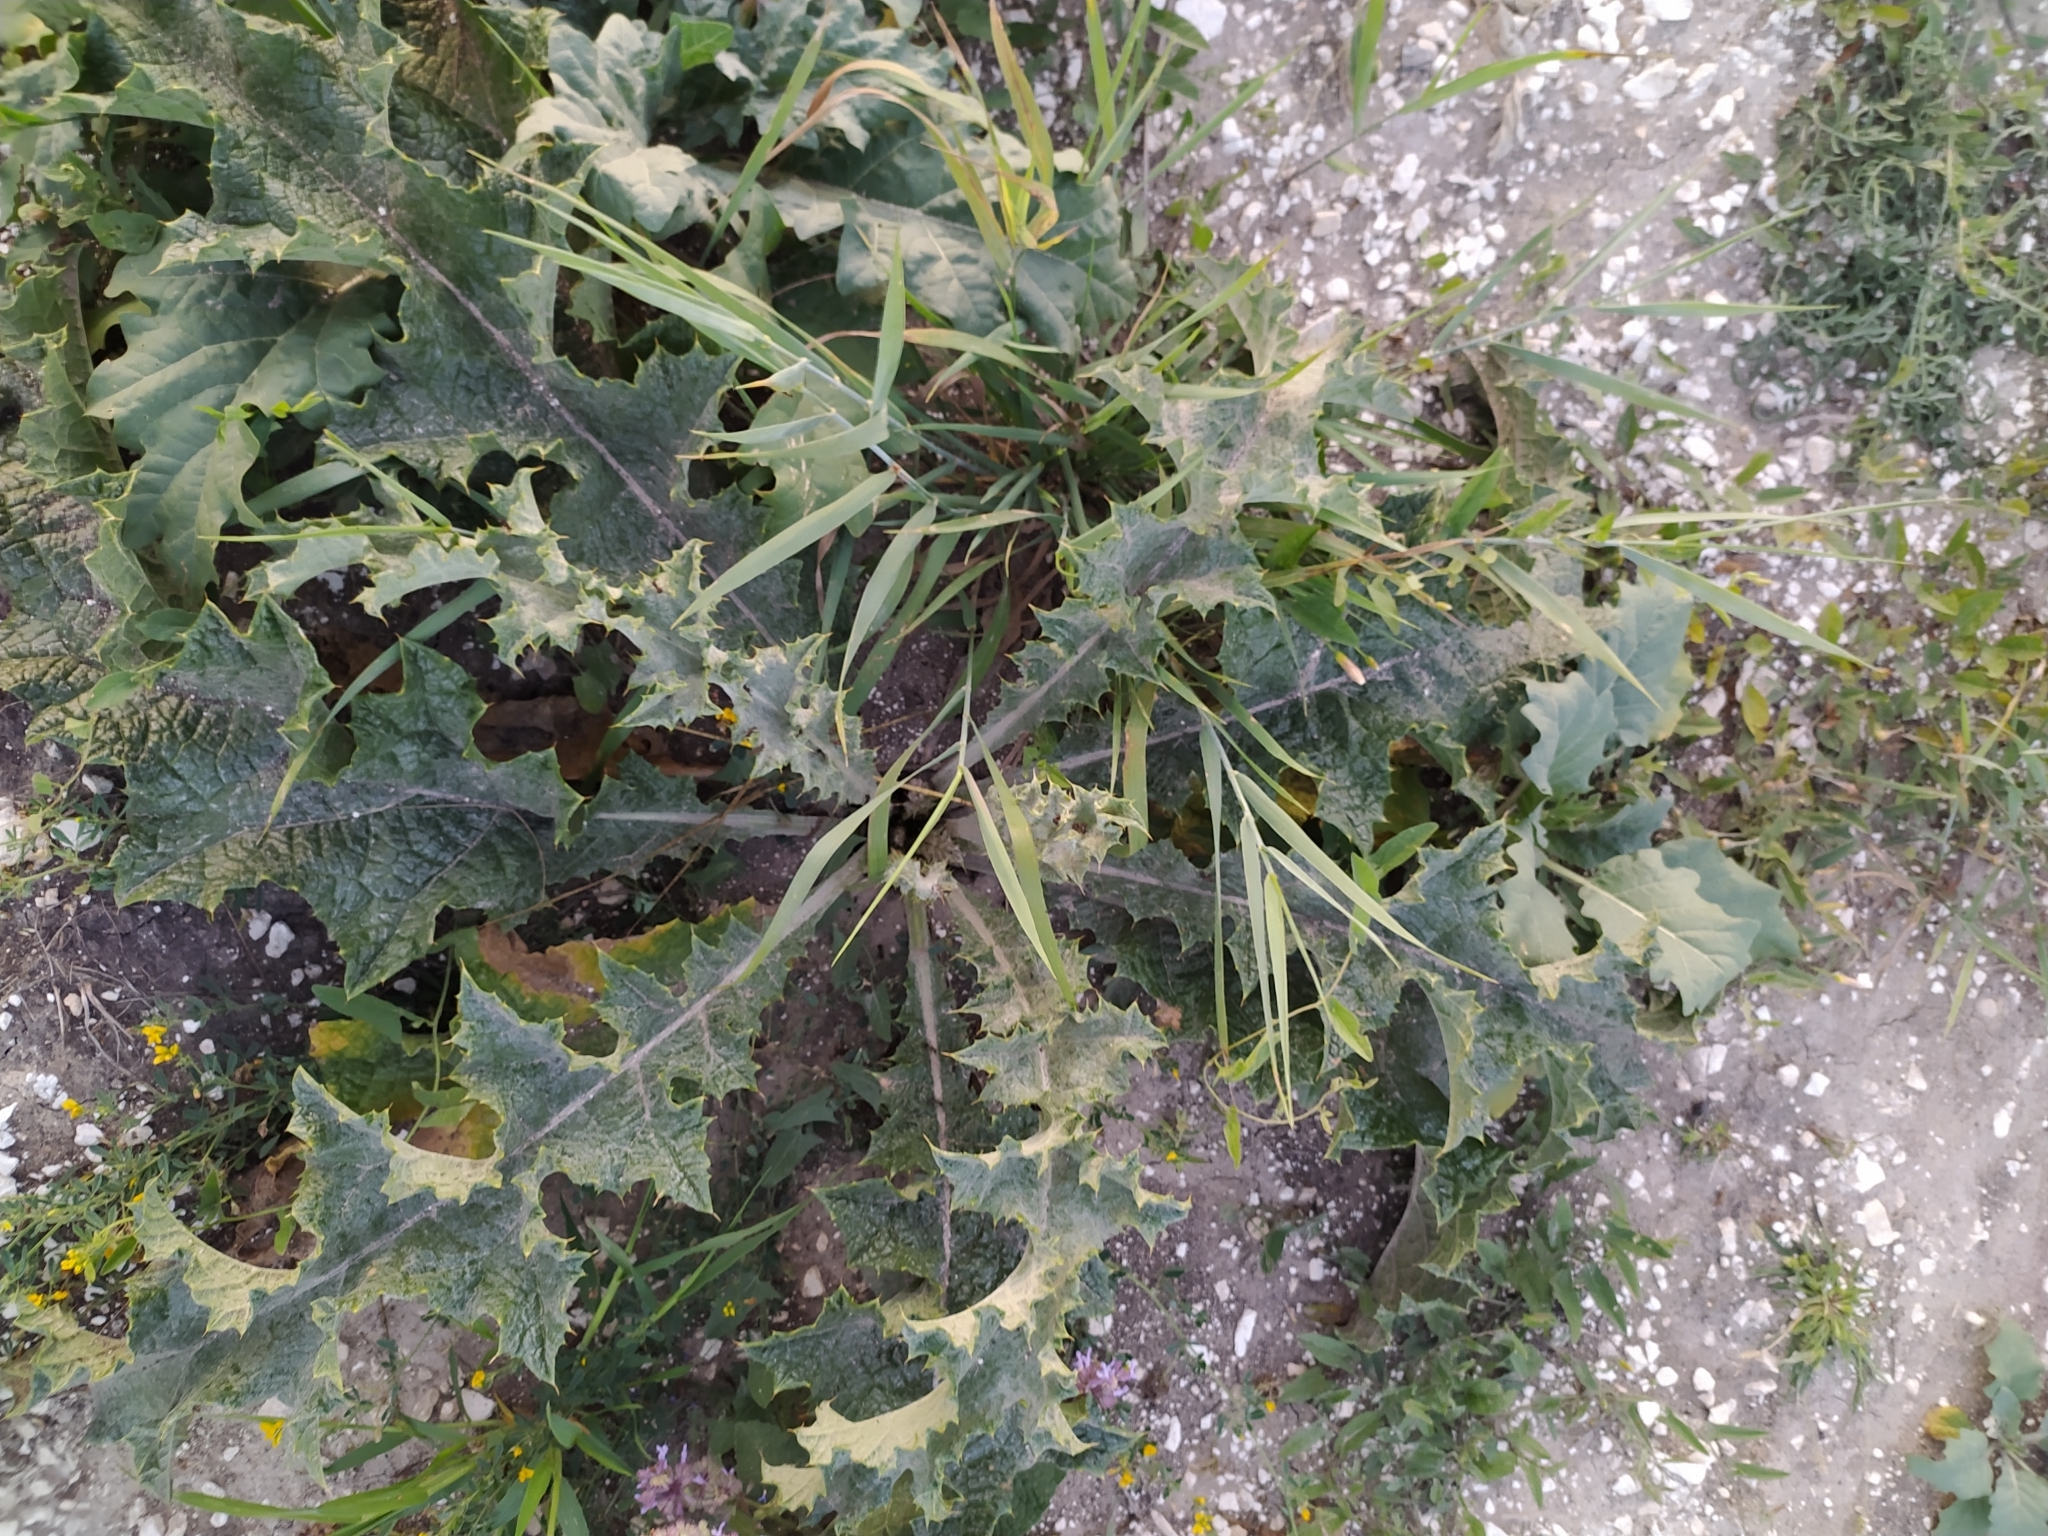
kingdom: Plantae
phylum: Tracheophyta
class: Magnoliopsida
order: Asterales
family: Asteraceae
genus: Onopordum
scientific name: Onopordum acanthium
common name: Scotch thistle
